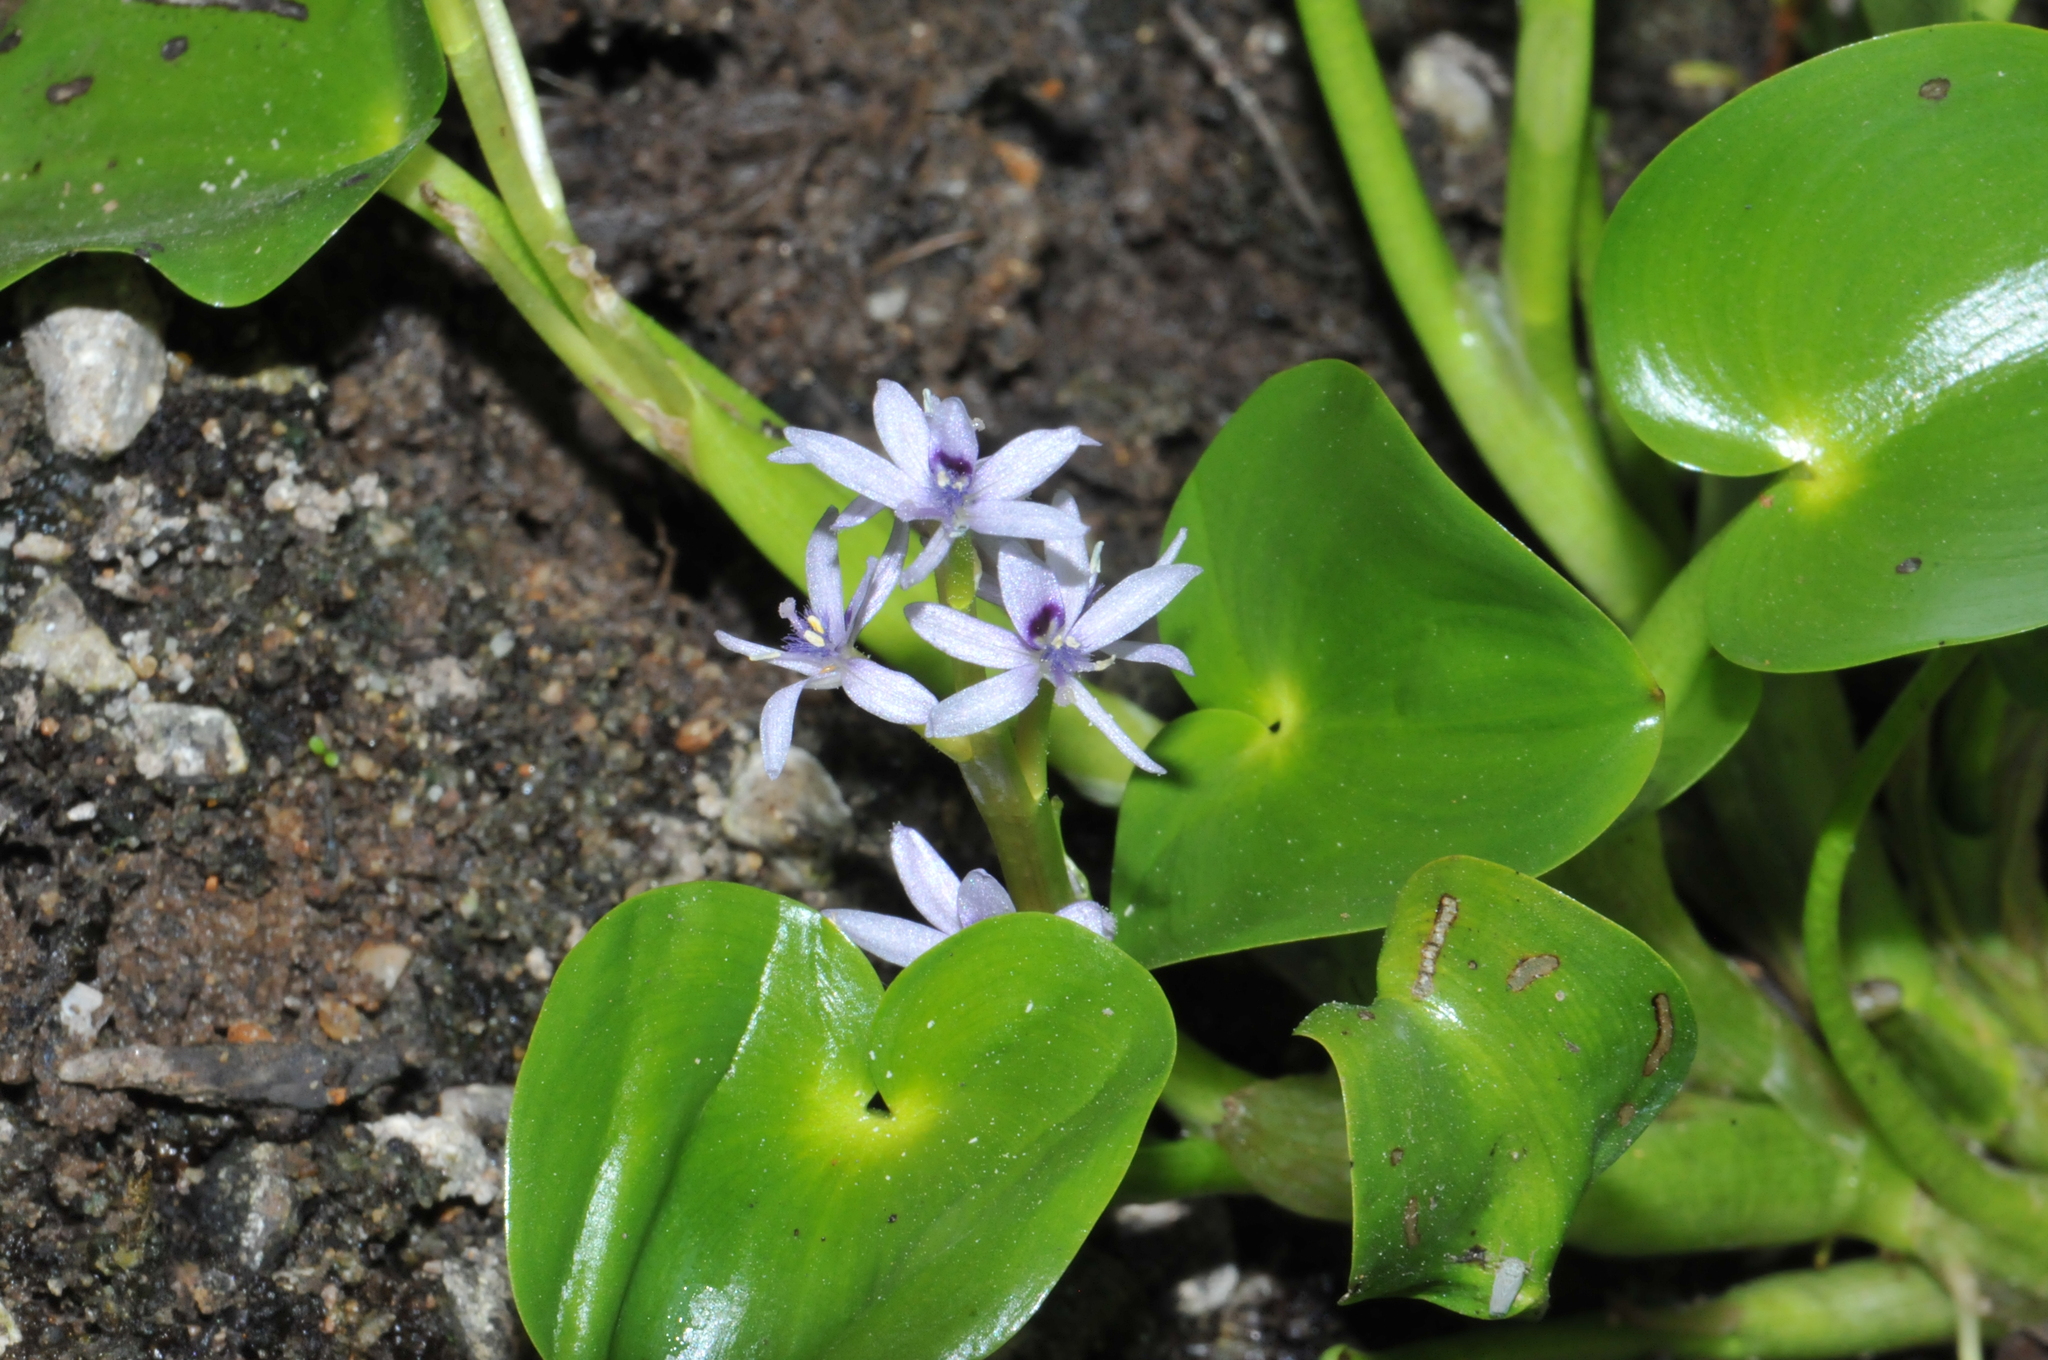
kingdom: Plantae
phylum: Tracheophyta
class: Liliopsida
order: Commelinales
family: Pontederiaceae
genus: Heteranthera
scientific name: Heteranthera missouriensis
